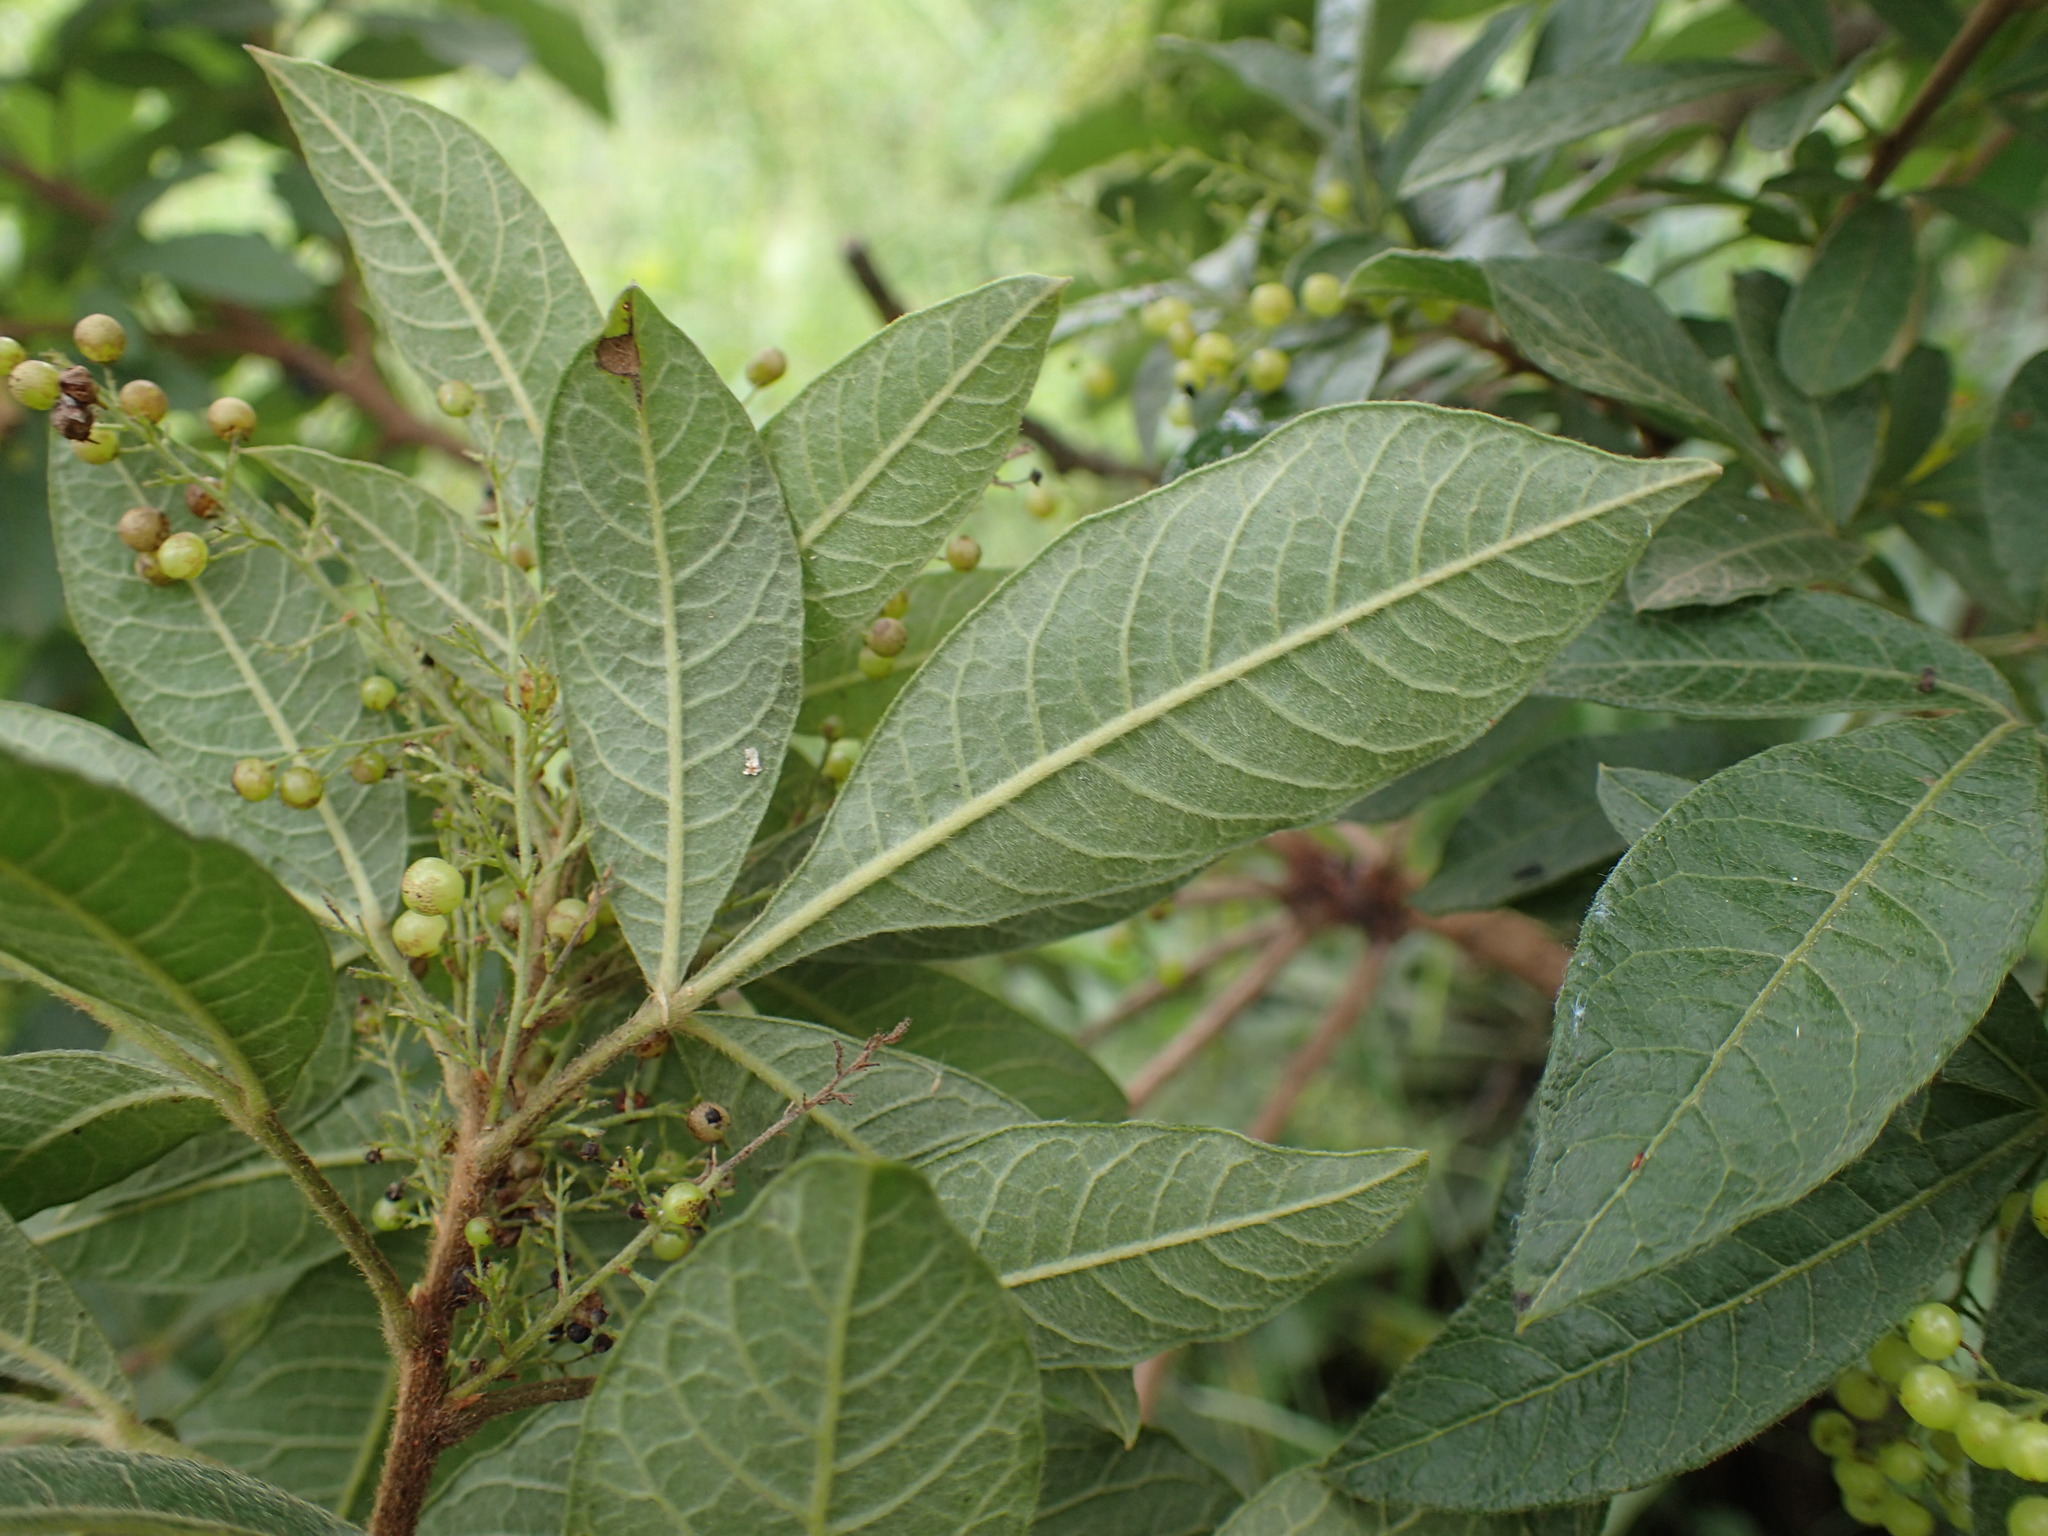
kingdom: Plantae
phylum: Tracheophyta
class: Magnoliopsida
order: Sapindales
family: Anacardiaceae
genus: Searsia
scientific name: Searsia discolor
